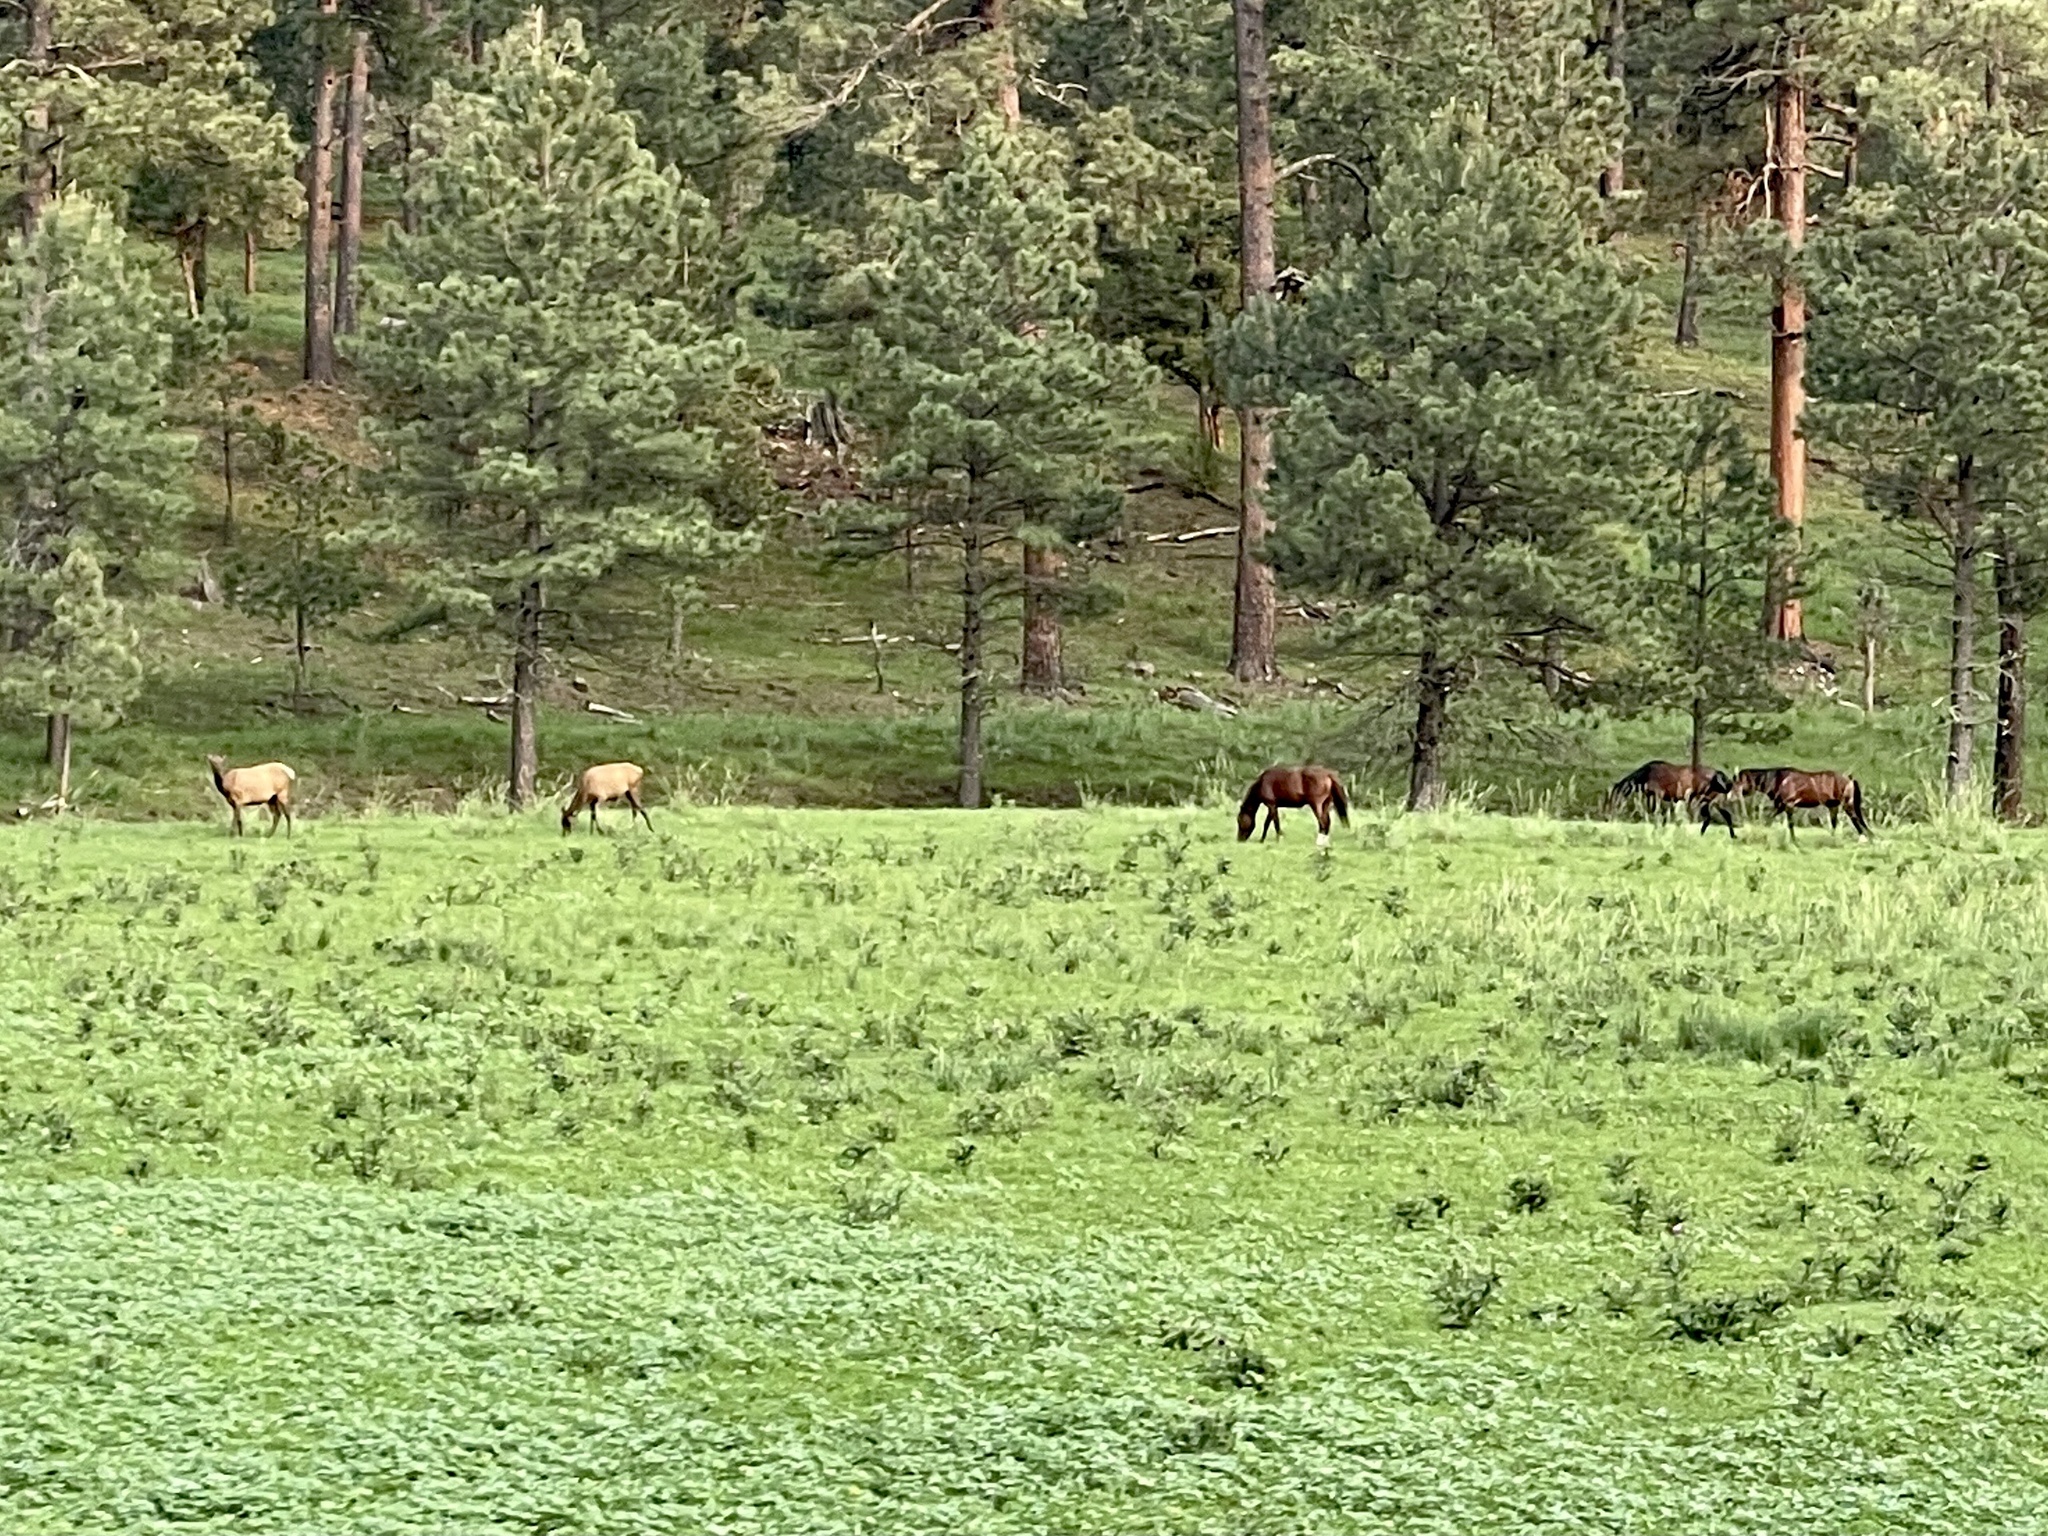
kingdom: Animalia
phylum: Chordata
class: Mammalia
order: Perissodactyla
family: Equidae
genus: Equus
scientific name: Equus caballus
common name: Horse
